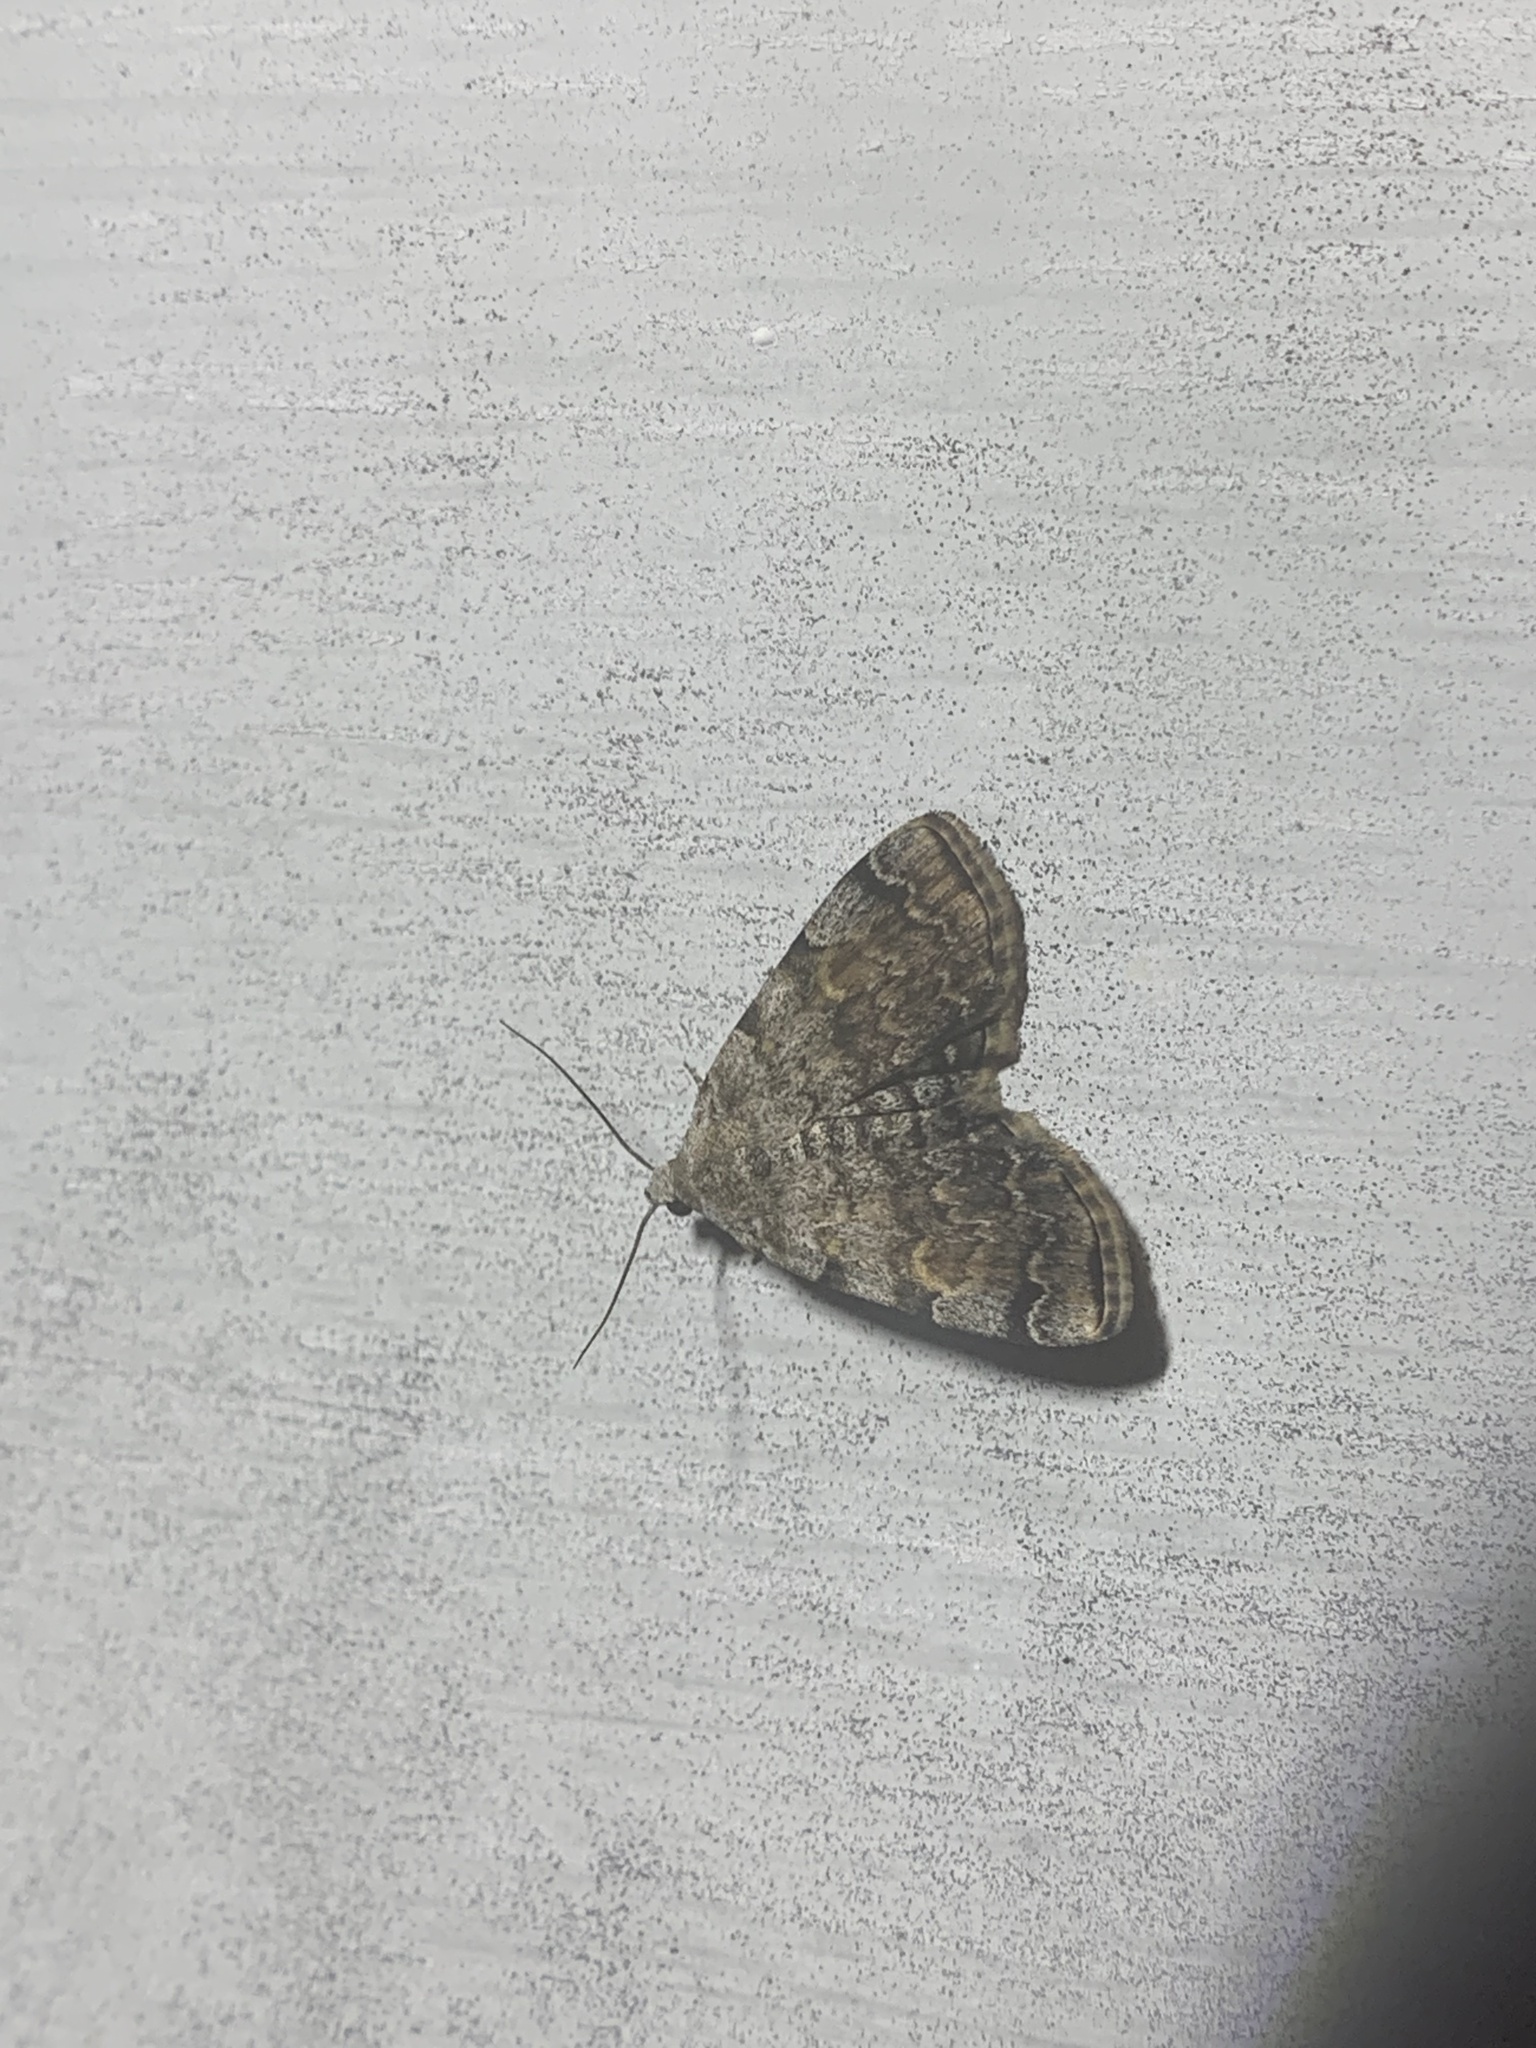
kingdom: Animalia
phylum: Arthropoda
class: Insecta
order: Lepidoptera
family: Erebidae
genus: Idia
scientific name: Idia americalis
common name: American idia moth
